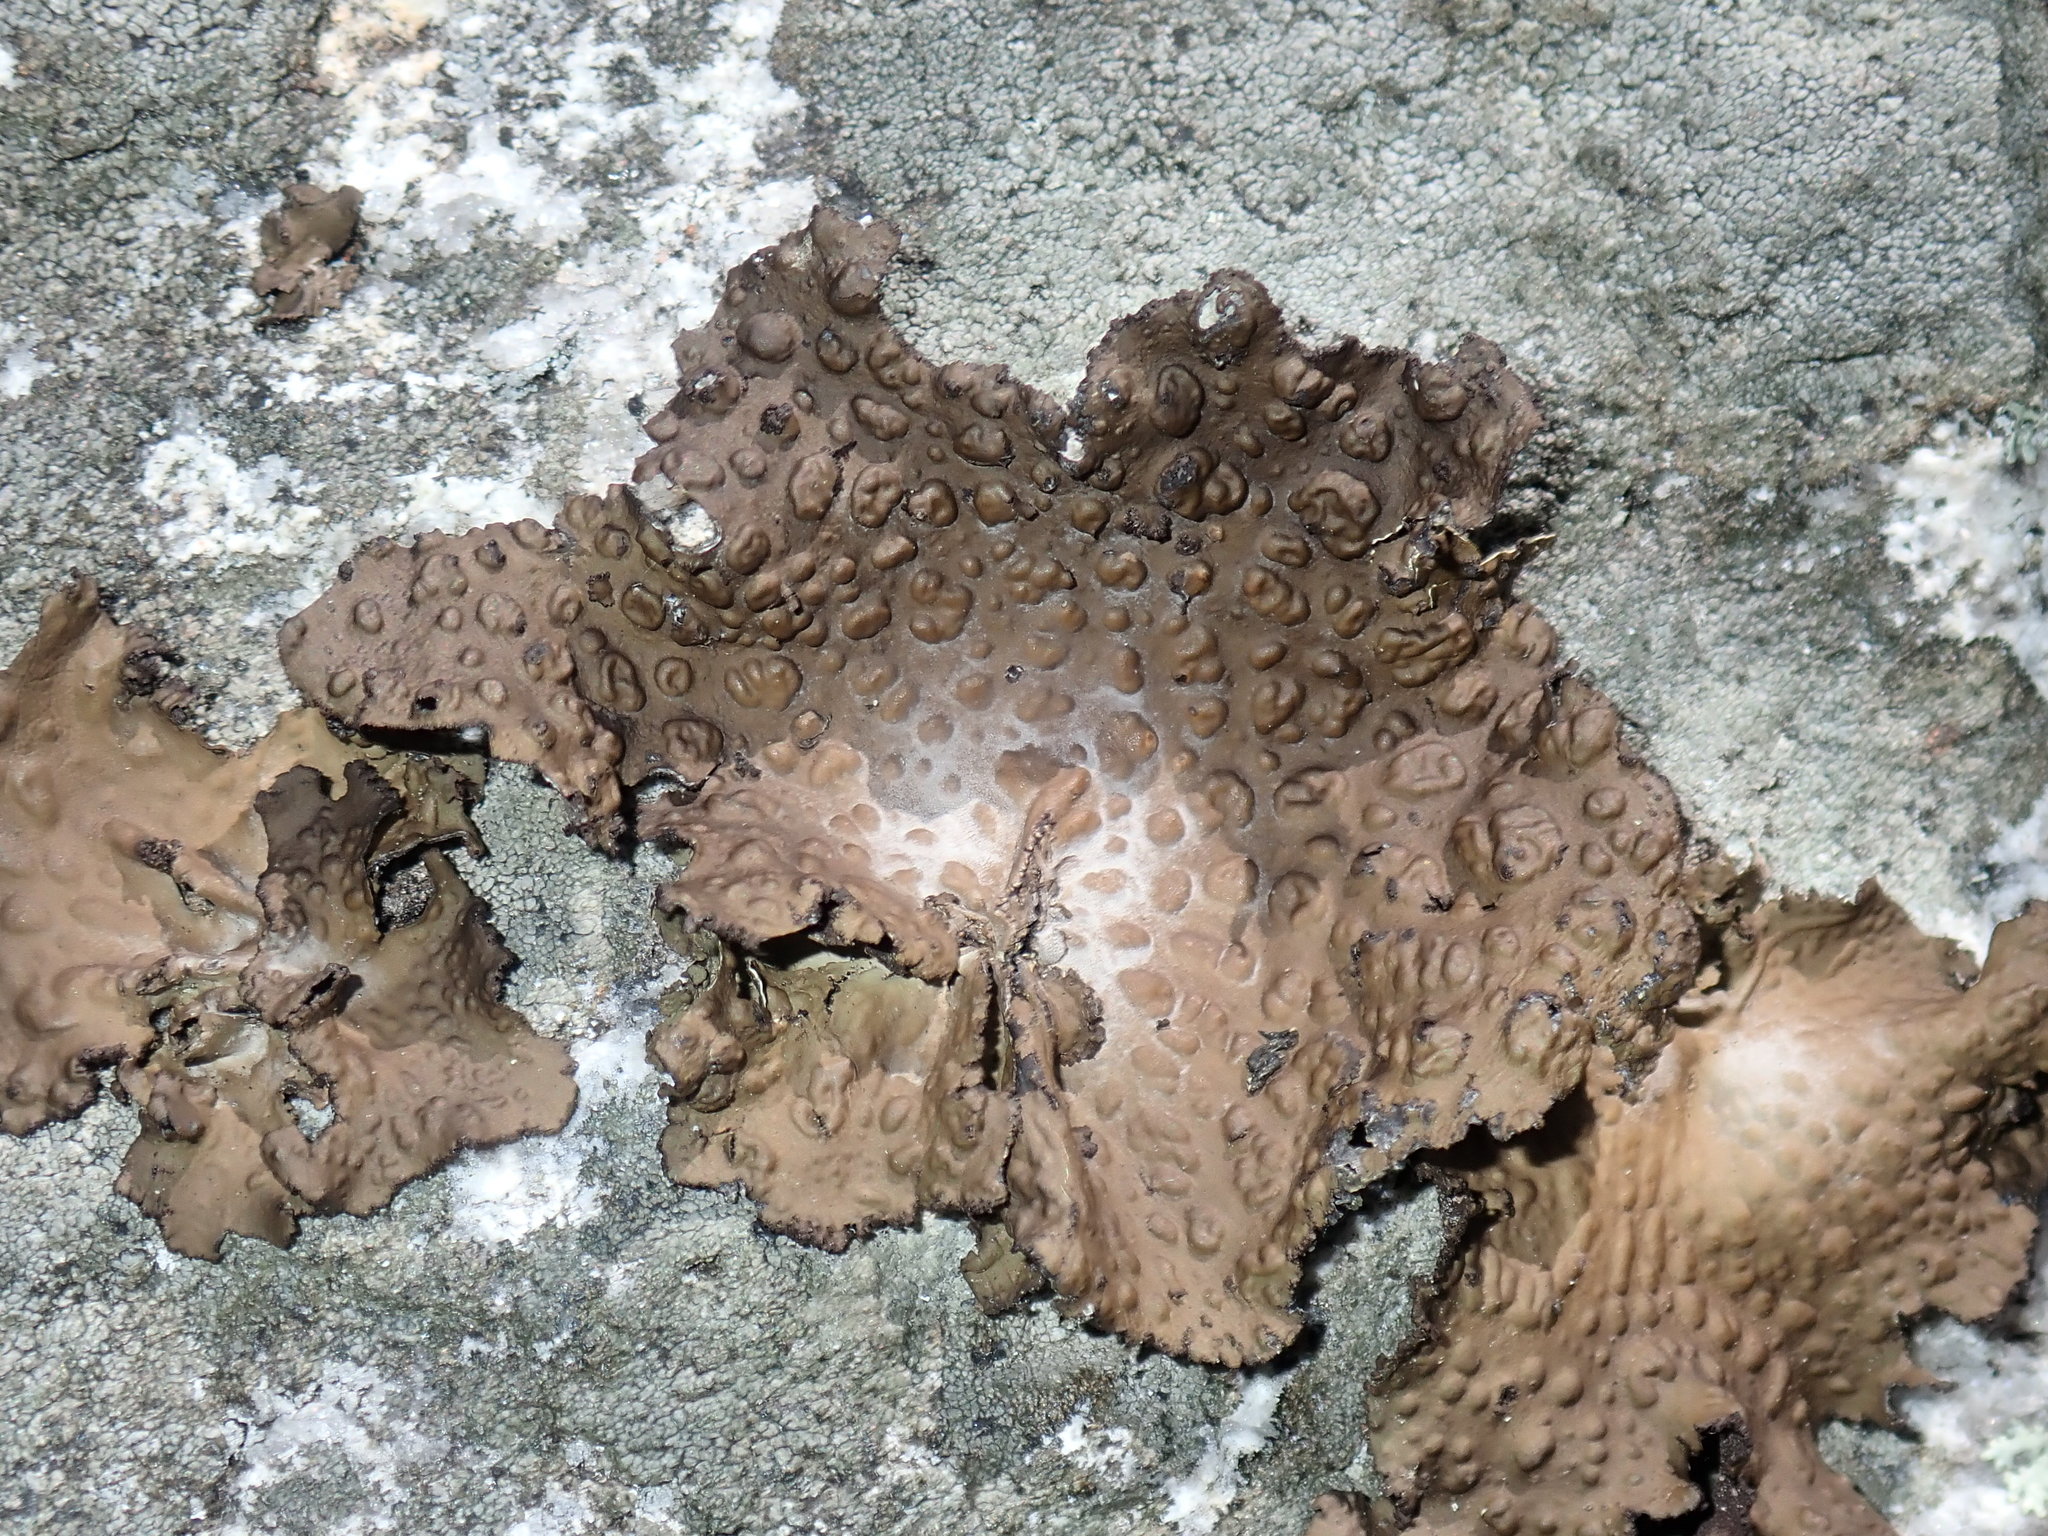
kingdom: Fungi
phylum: Ascomycota
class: Lecanoromycetes
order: Umbilicariales
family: Umbilicariaceae
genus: Lasallia
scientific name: Lasallia papulosa
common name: Common toadskin lichen
